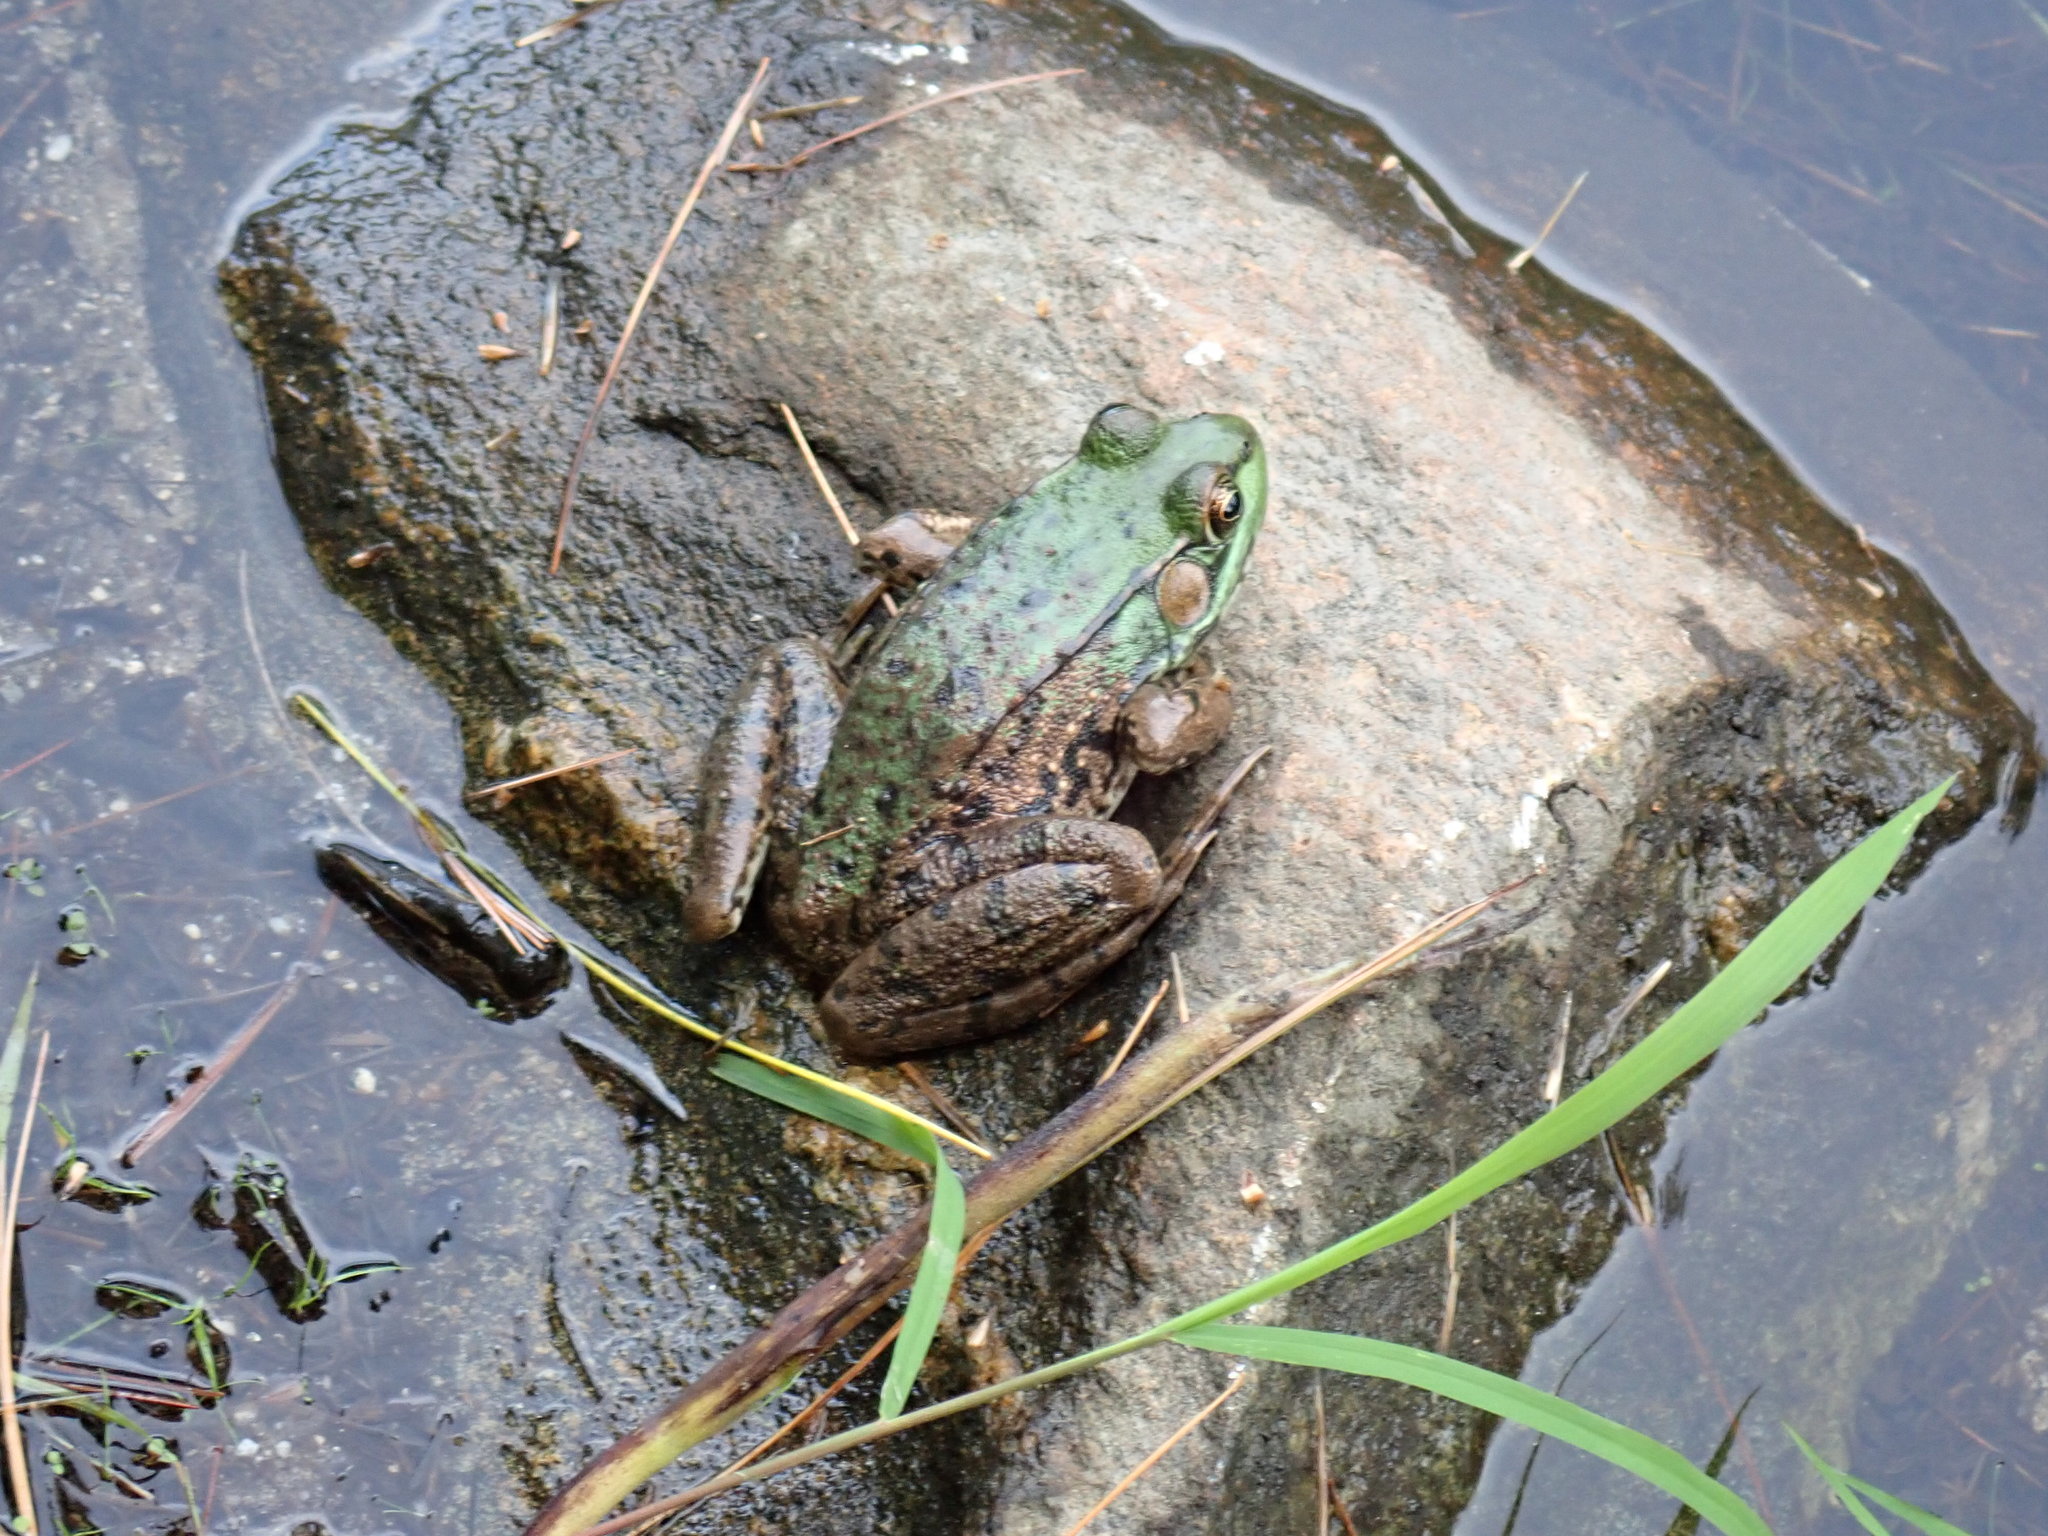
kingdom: Animalia
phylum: Chordata
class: Amphibia
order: Anura
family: Ranidae
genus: Lithobates
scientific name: Lithobates clamitans
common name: Green frog
